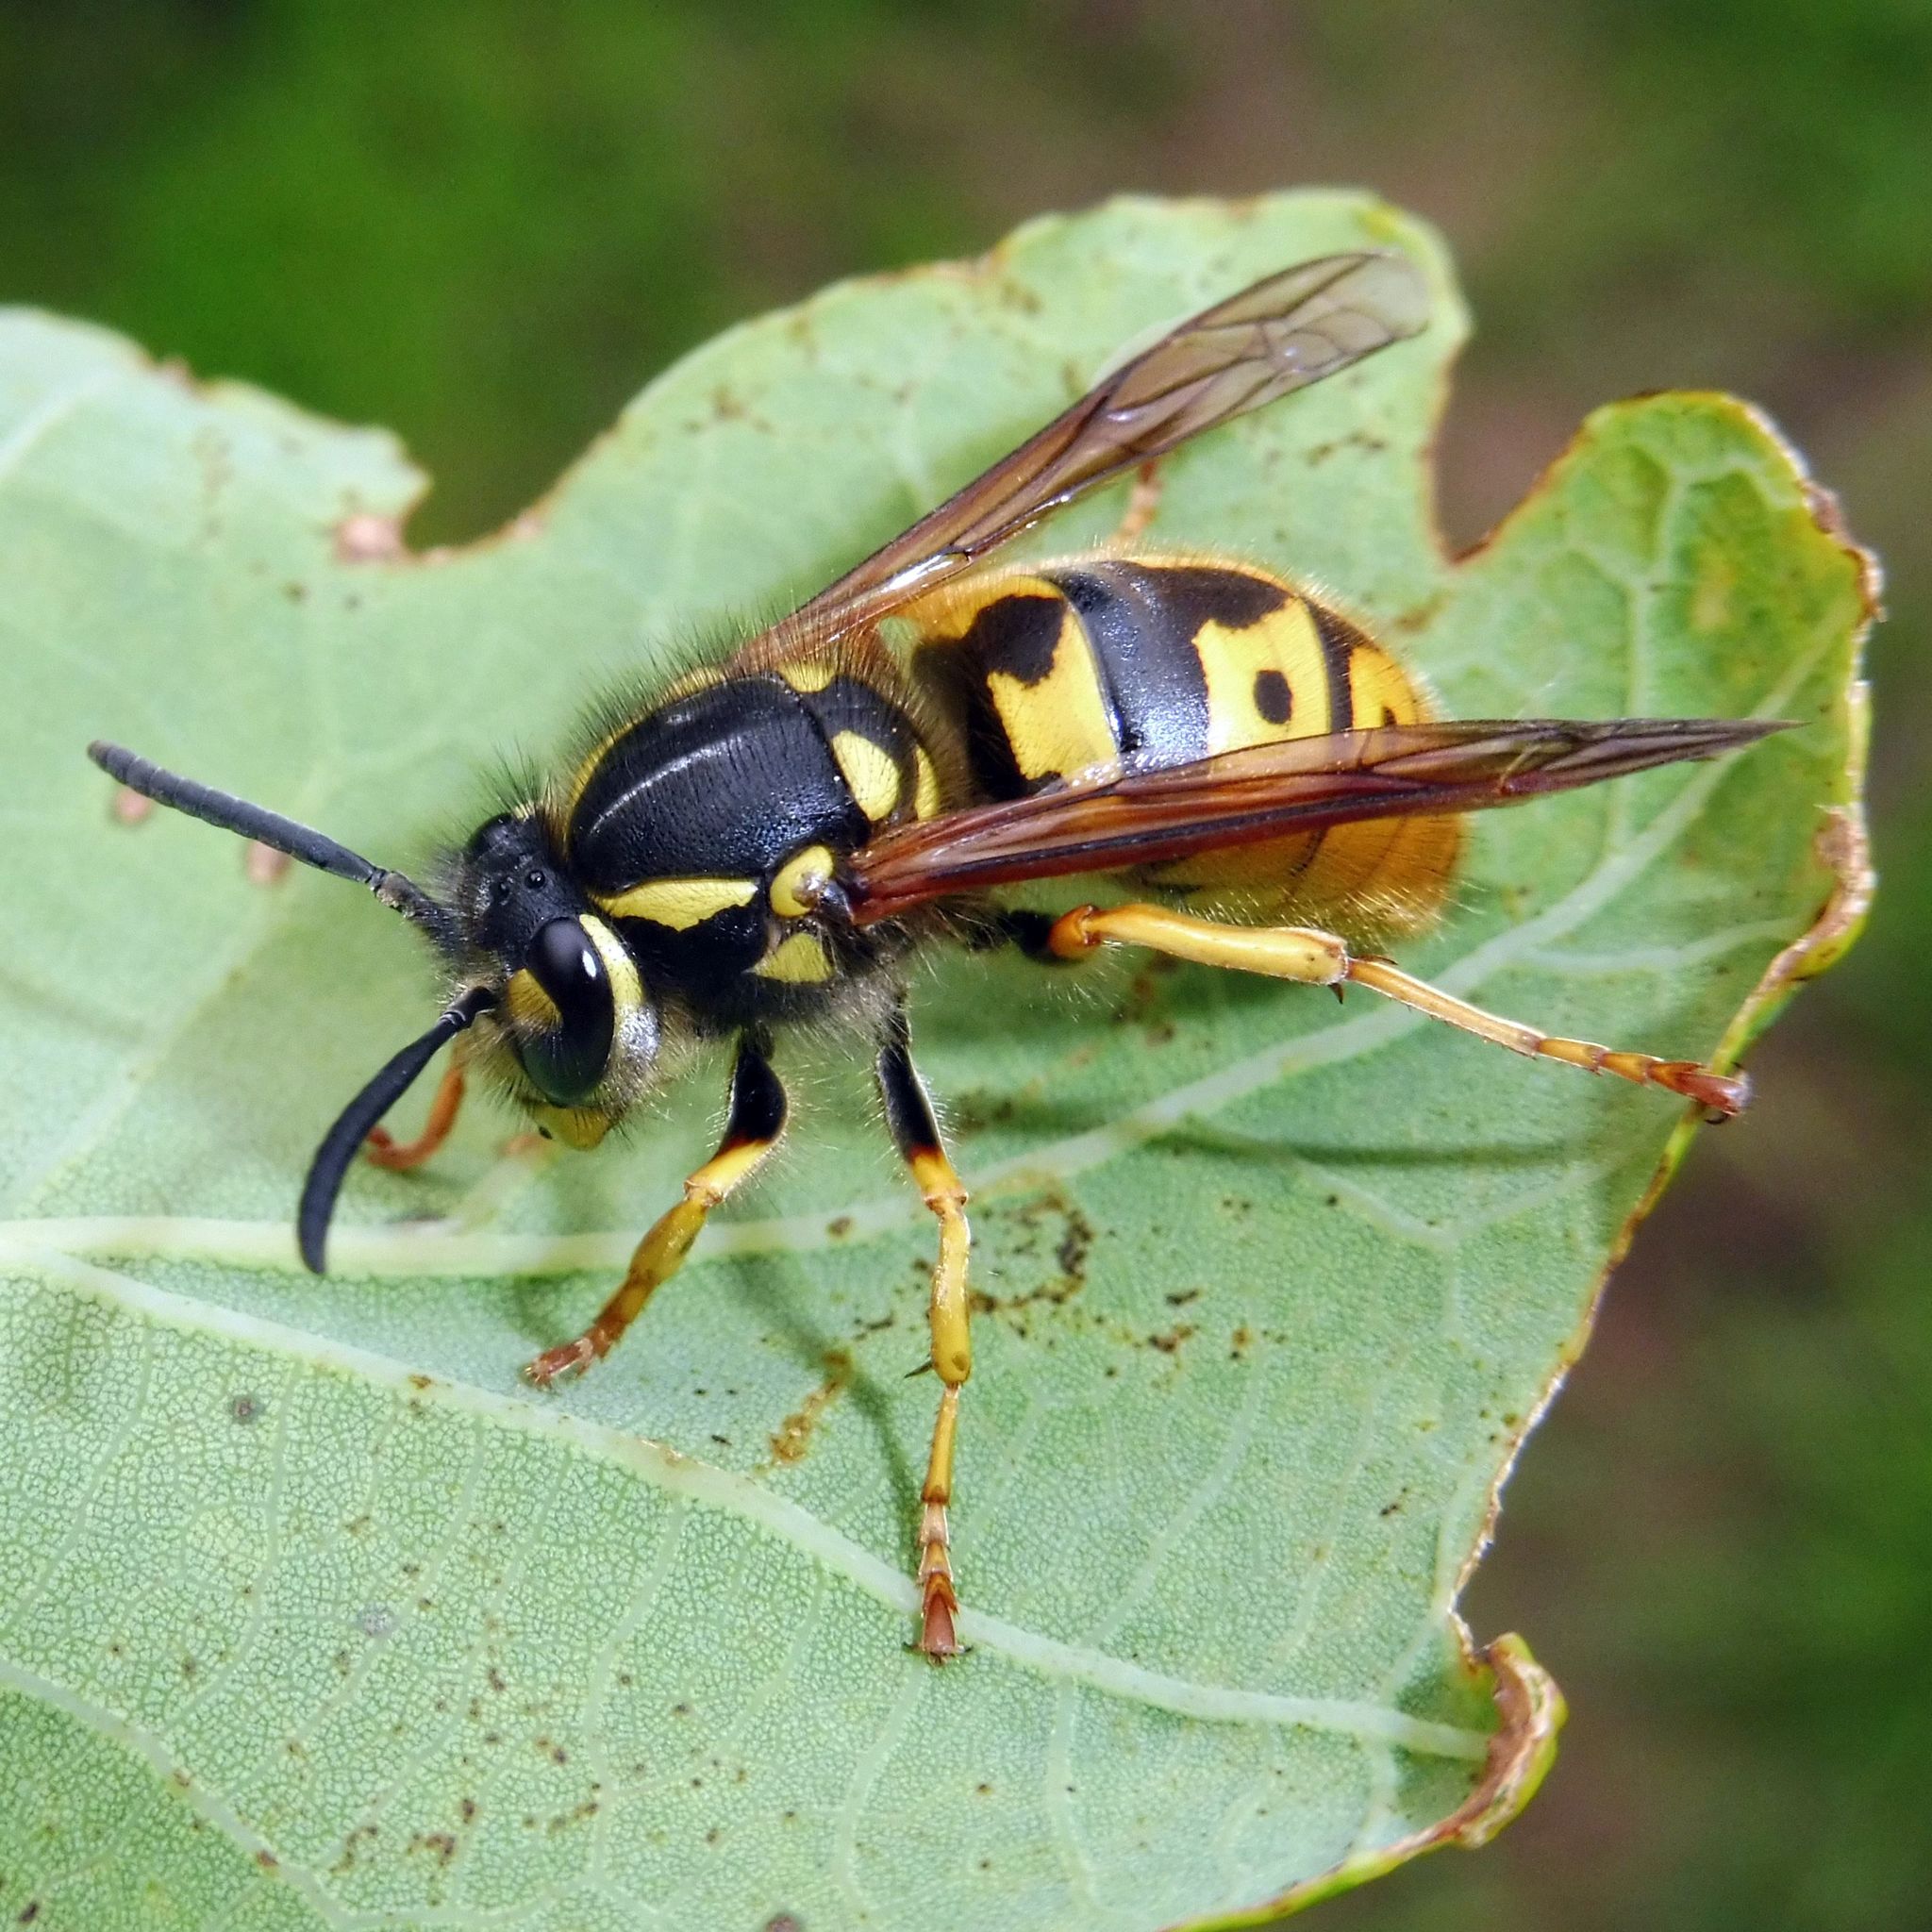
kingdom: Animalia
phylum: Arthropoda
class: Insecta
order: Hymenoptera
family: Vespidae
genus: Vespula
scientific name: Vespula germanica
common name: German wasp
